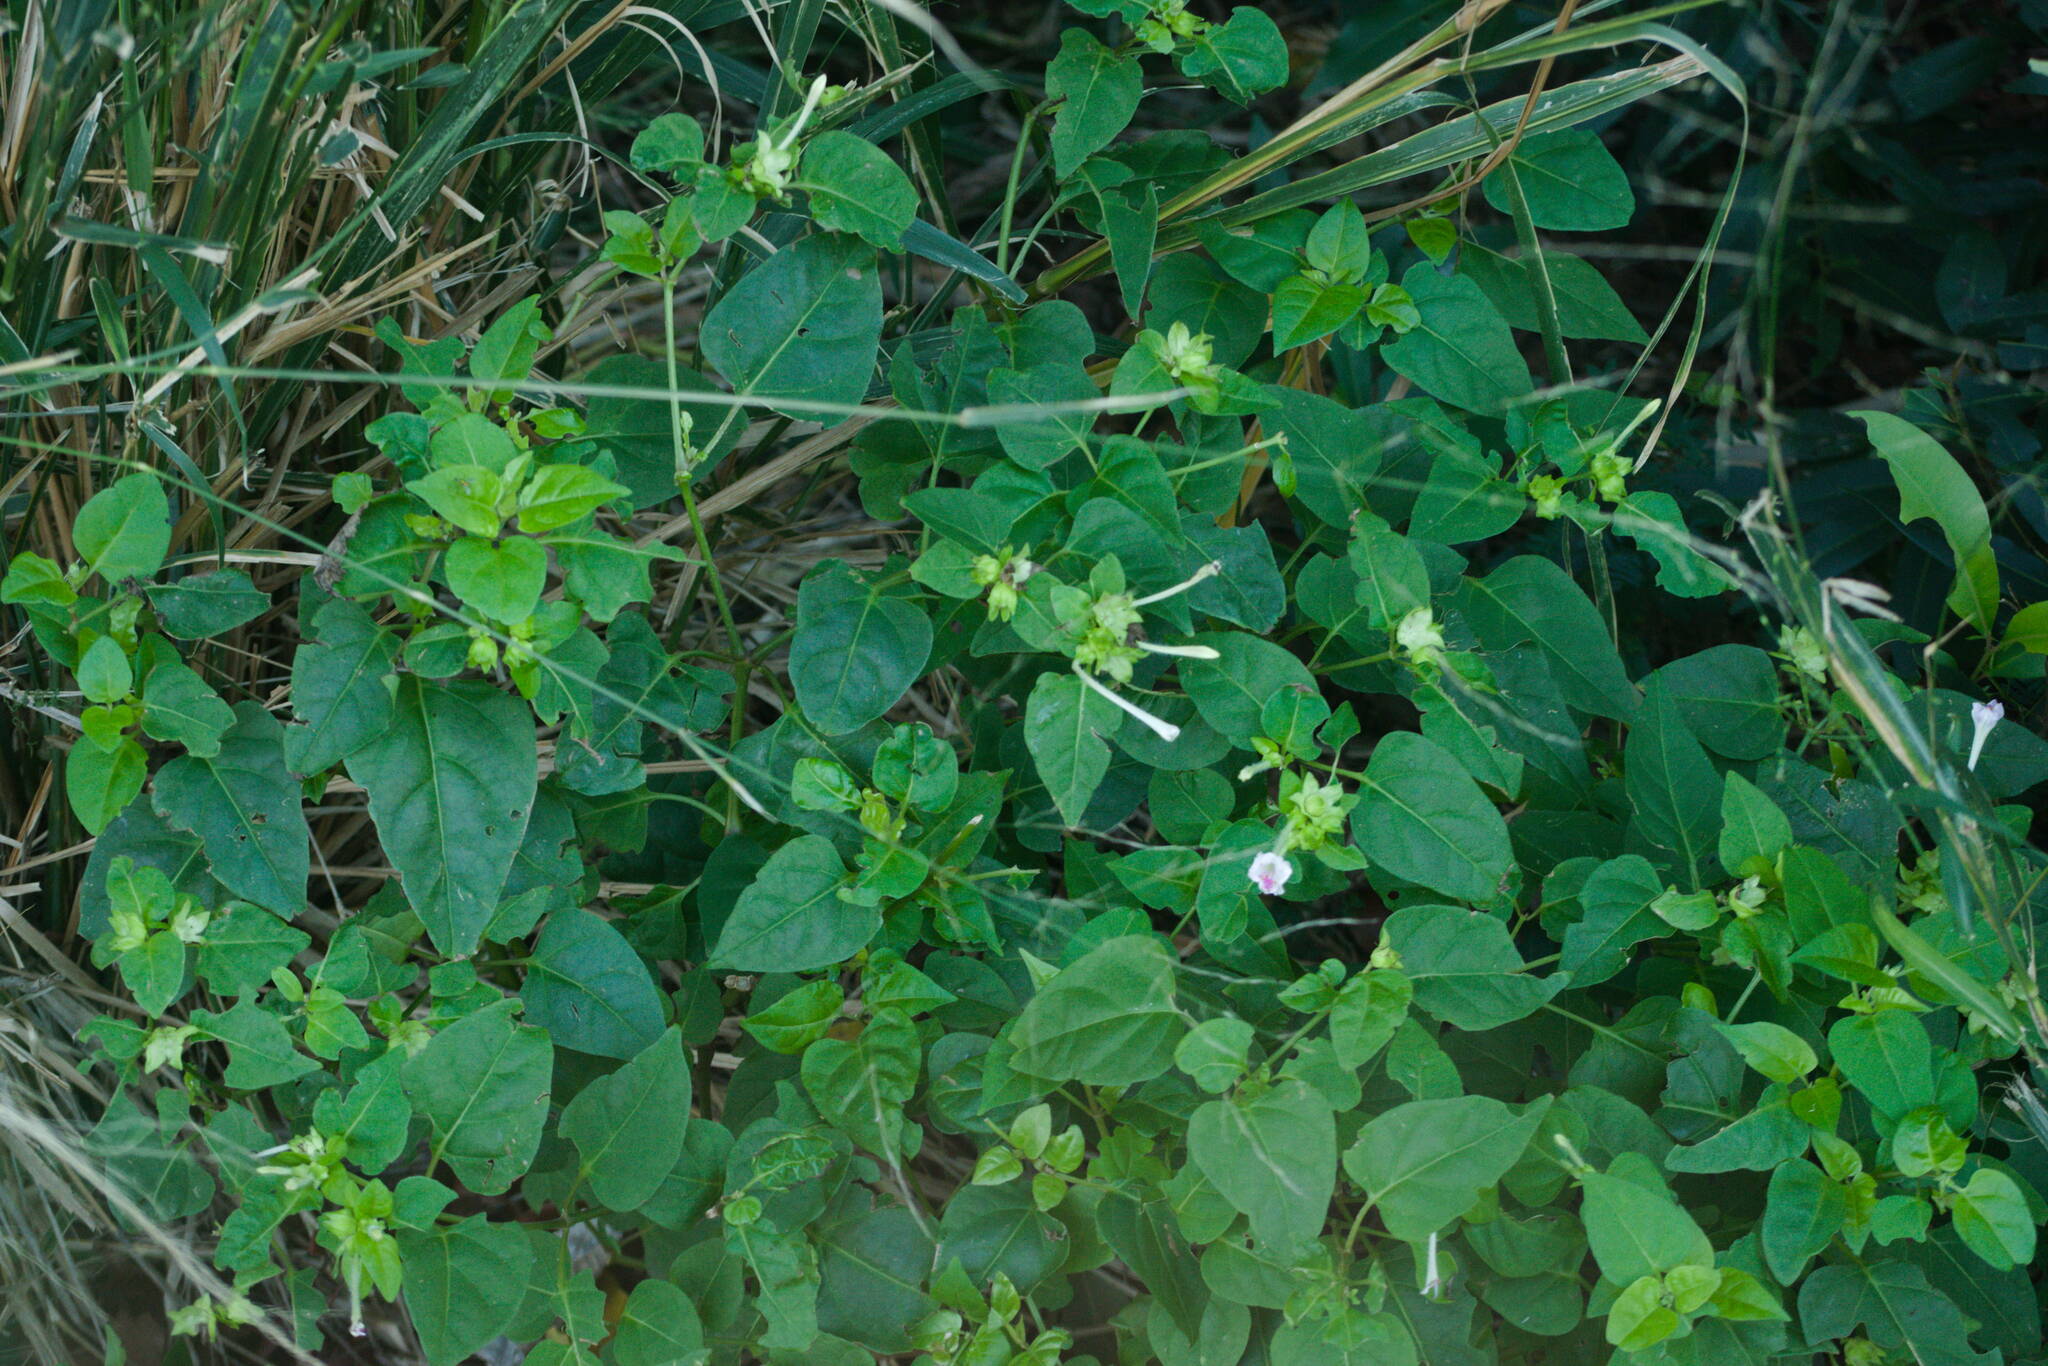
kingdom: Plantae
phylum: Tracheophyta
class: Magnoliopsida
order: Caryophyllales
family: Nyctaginaceae
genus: Mirabilis
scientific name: Mirabilis jalapa
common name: Marvel-of-peru
